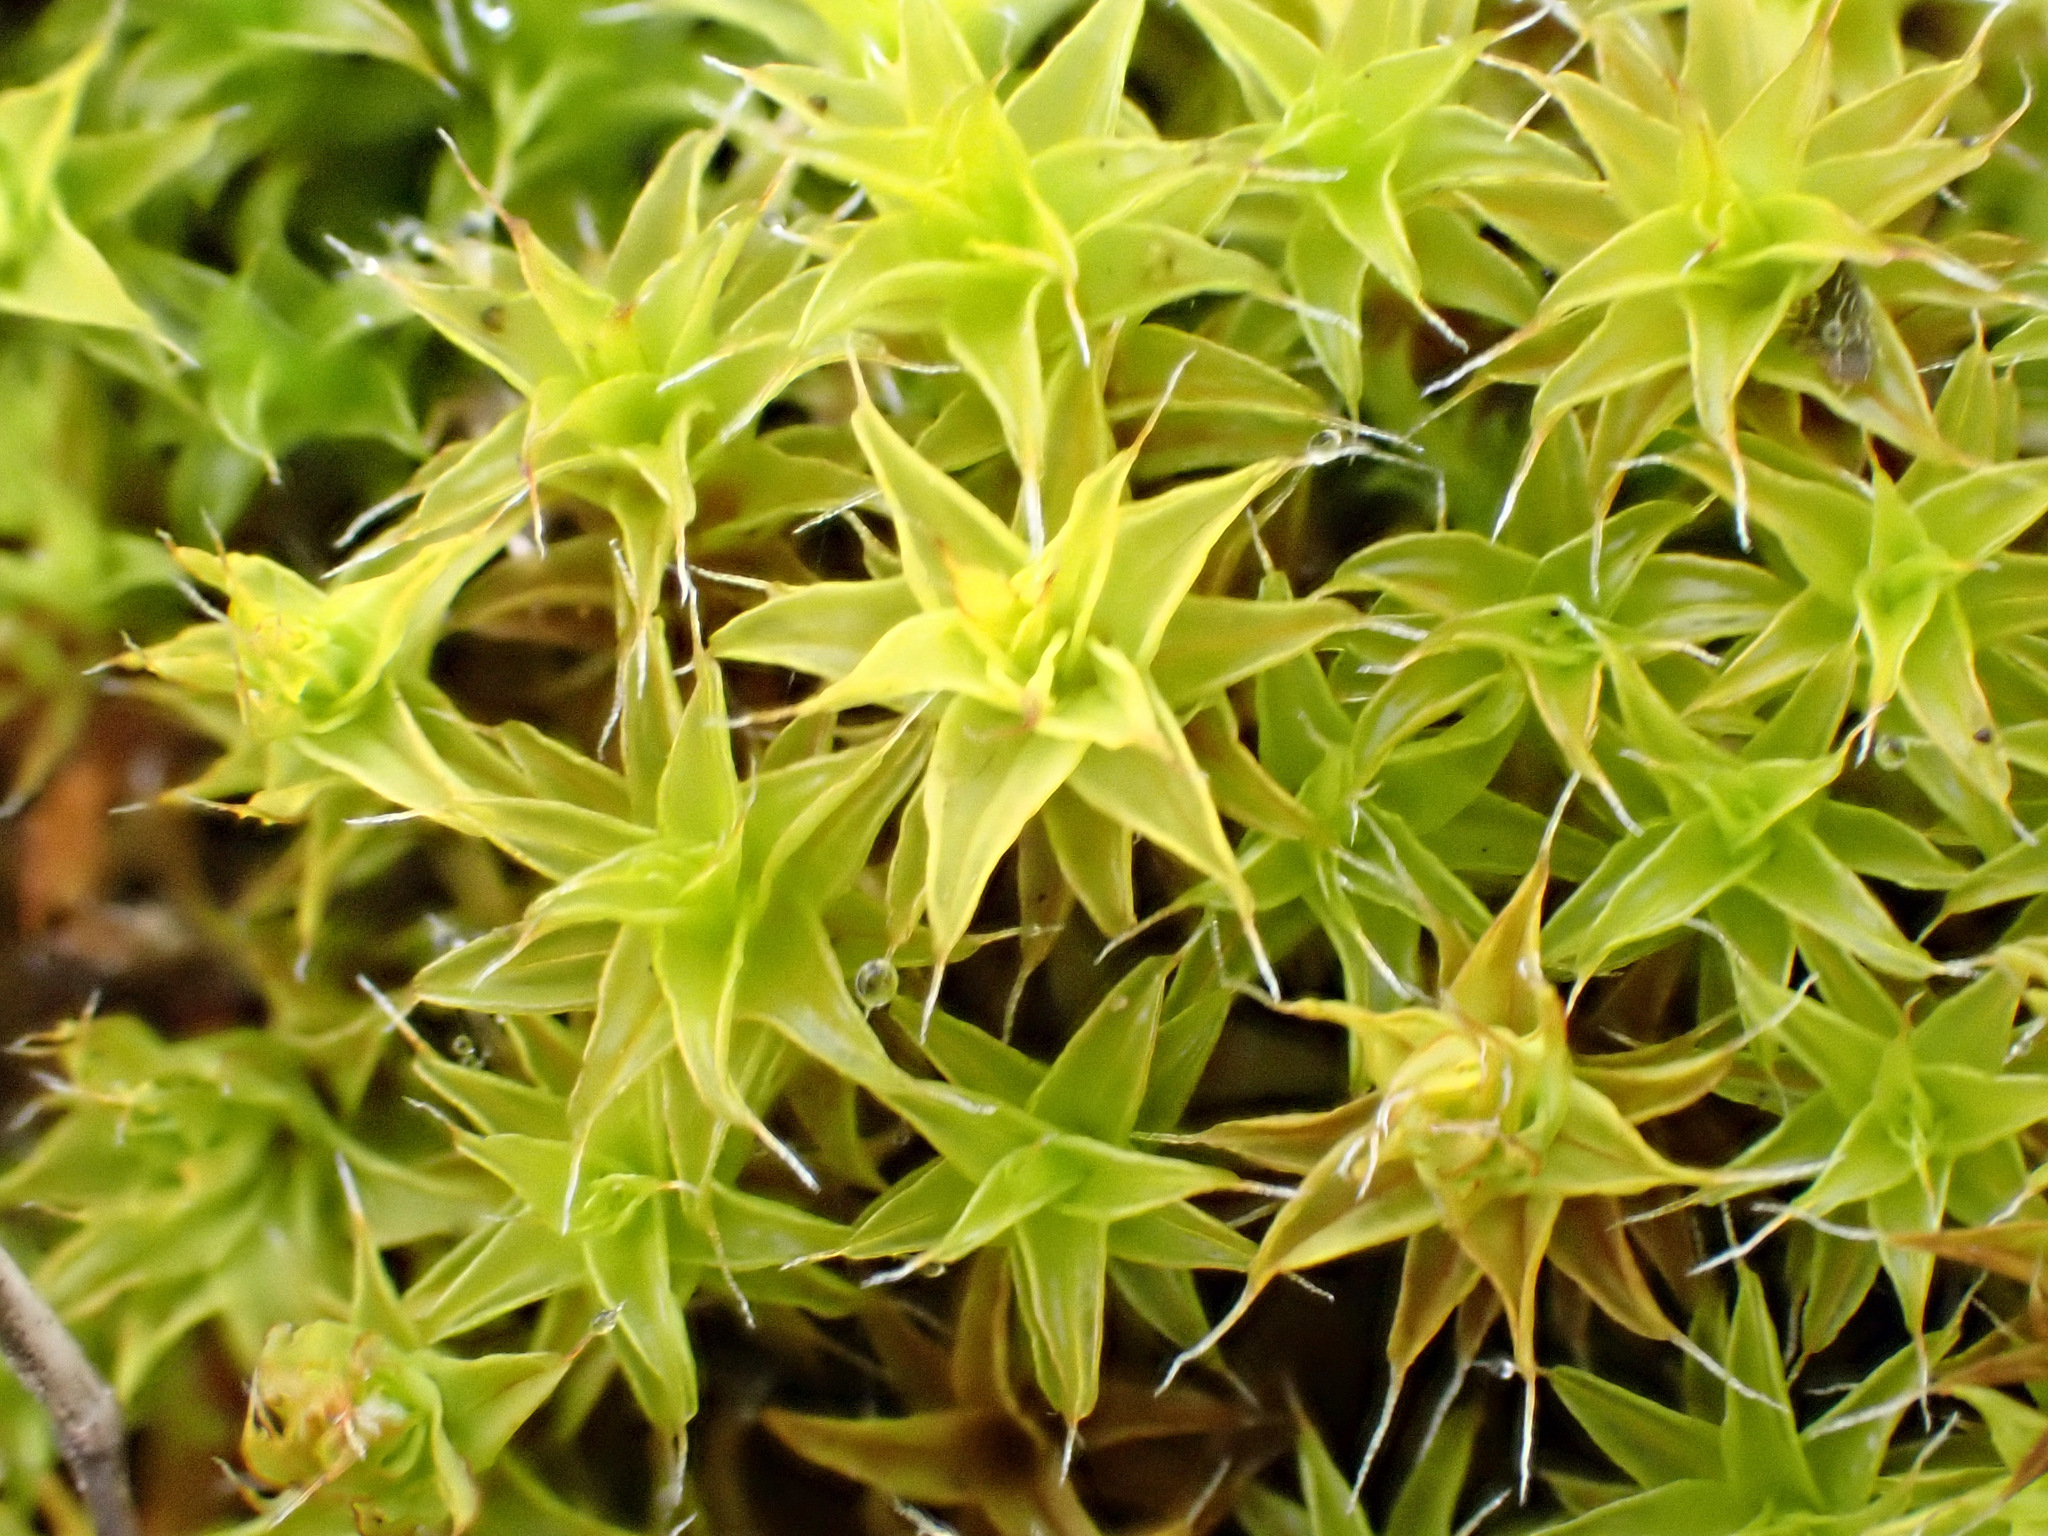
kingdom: Plantae
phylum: Bryophyta
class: Bryopsida
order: Pottiales
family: Pottiaceae
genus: Syntrichia
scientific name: Syntrichia ruralis
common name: Sidewalk screw moss
